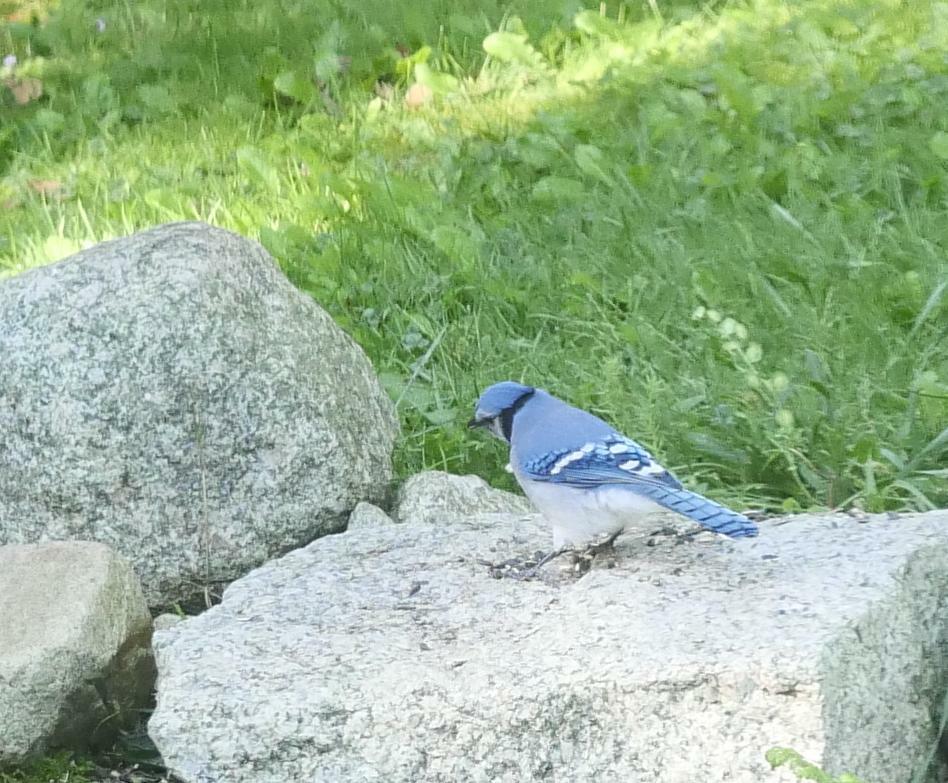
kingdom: Animalia
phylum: Chordata
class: Aves
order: Passeriformes
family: Corvidae
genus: Cyanocitta
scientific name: Cyanocitta cristata
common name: Blue jay
